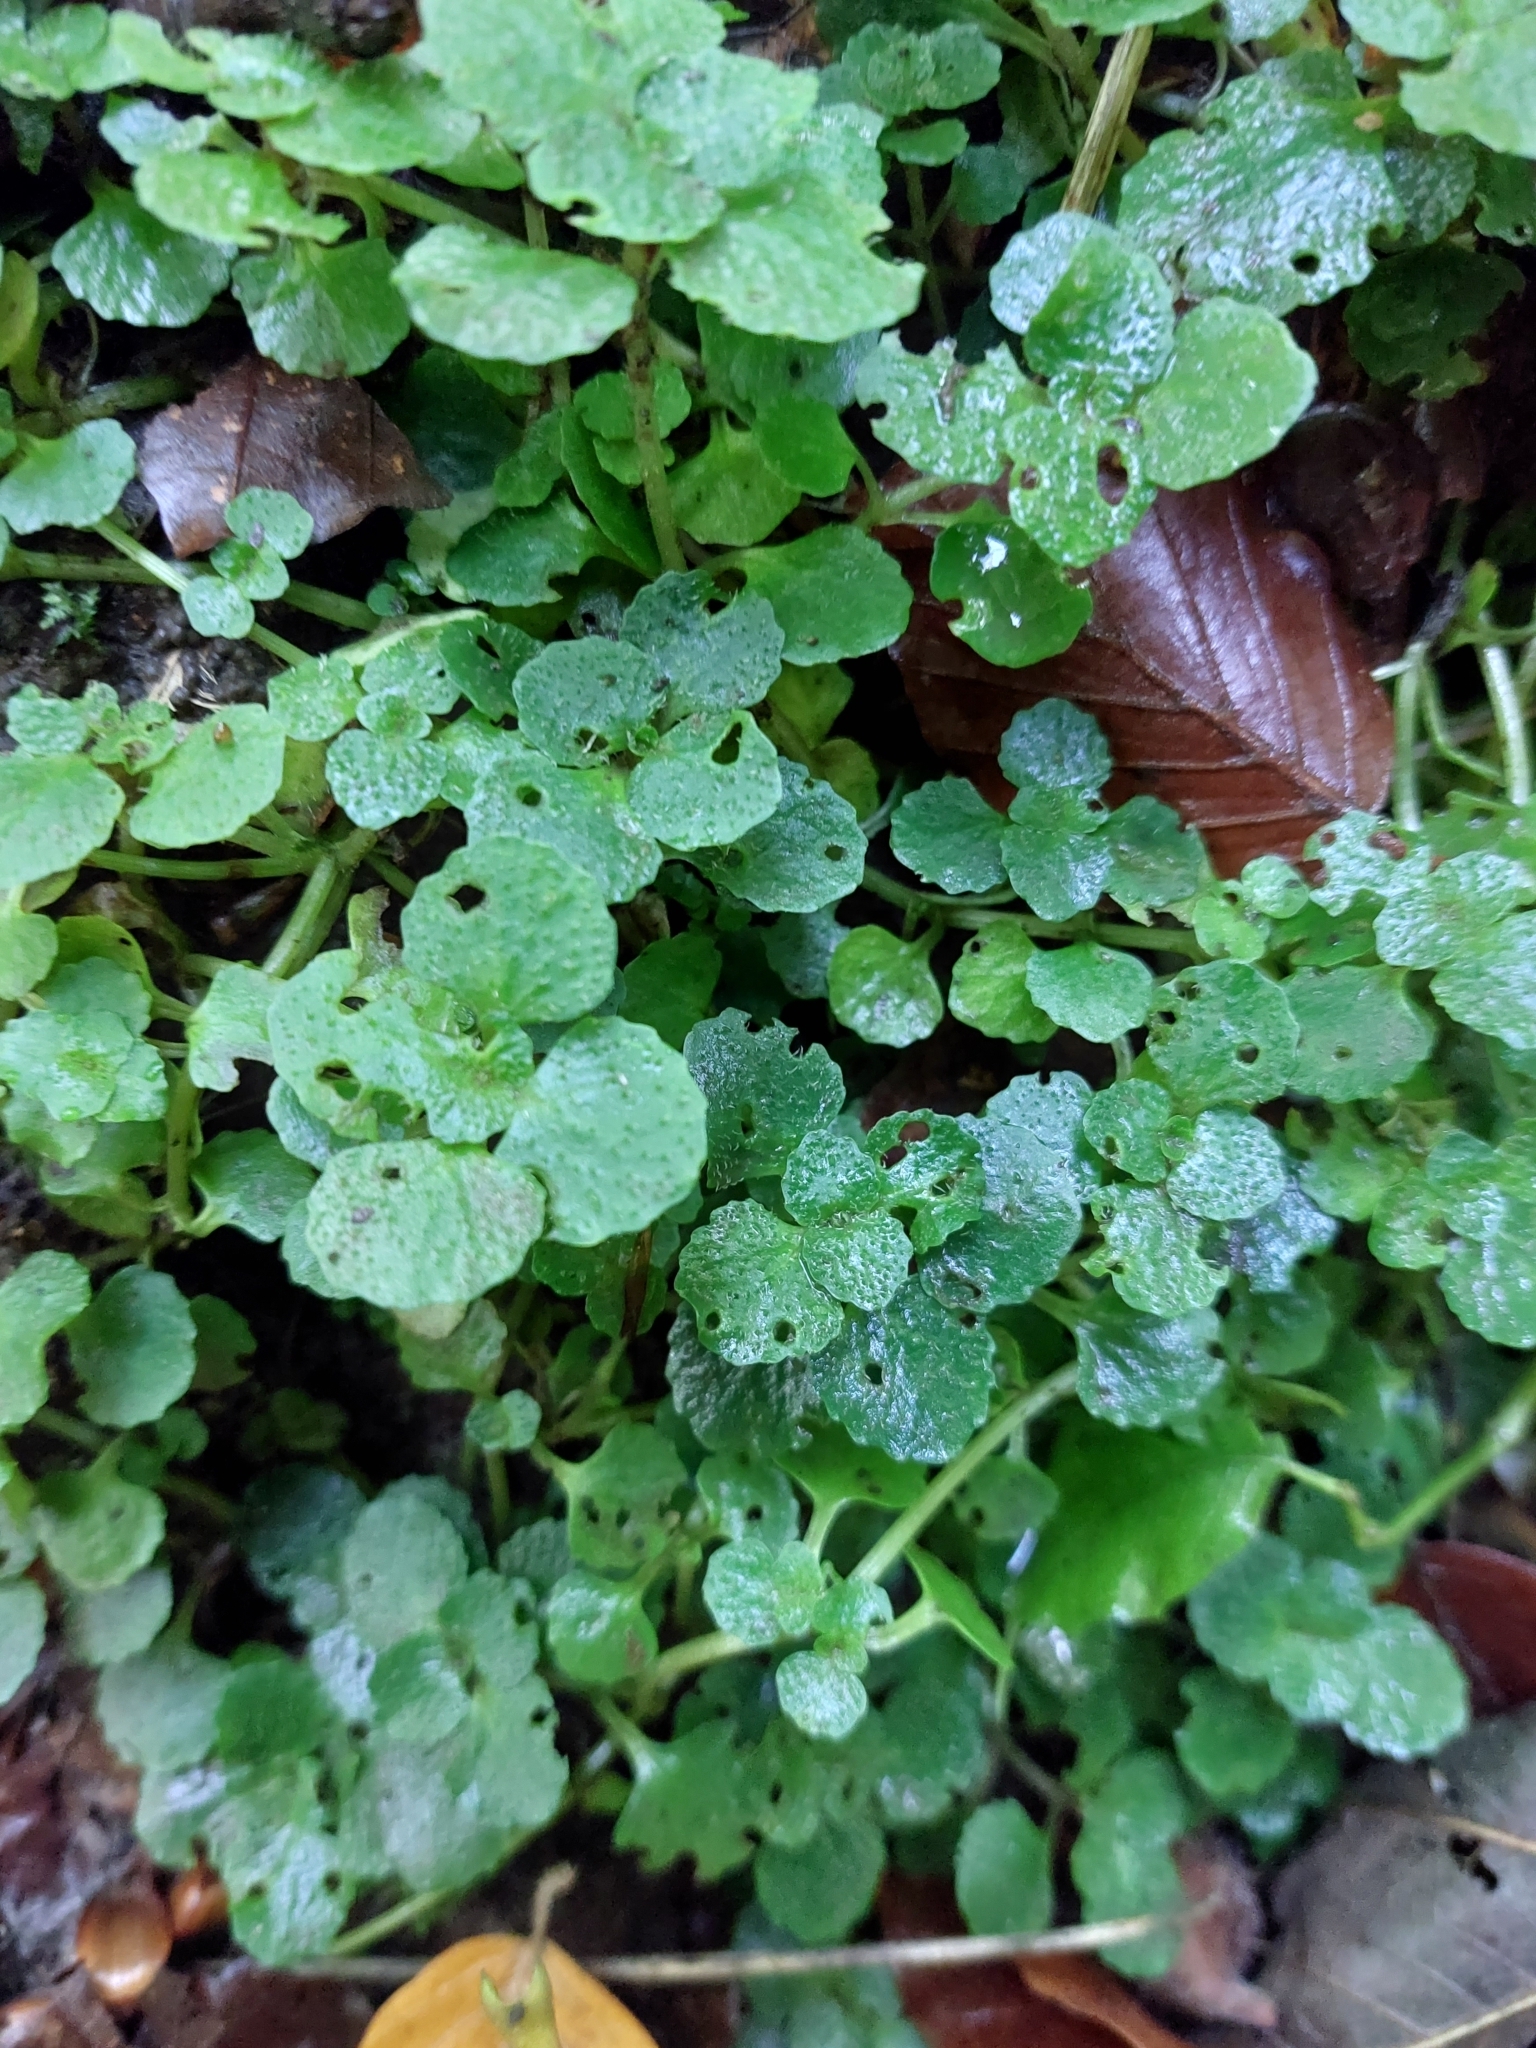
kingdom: Plantae
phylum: Tracheophyta
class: Magnoliopsida
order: Saxifragales
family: Saxifragaceae
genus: Chrysosplenium
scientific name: Chrysosplenium oppositifolium
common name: Opposite-leaved golden-saxifrage
